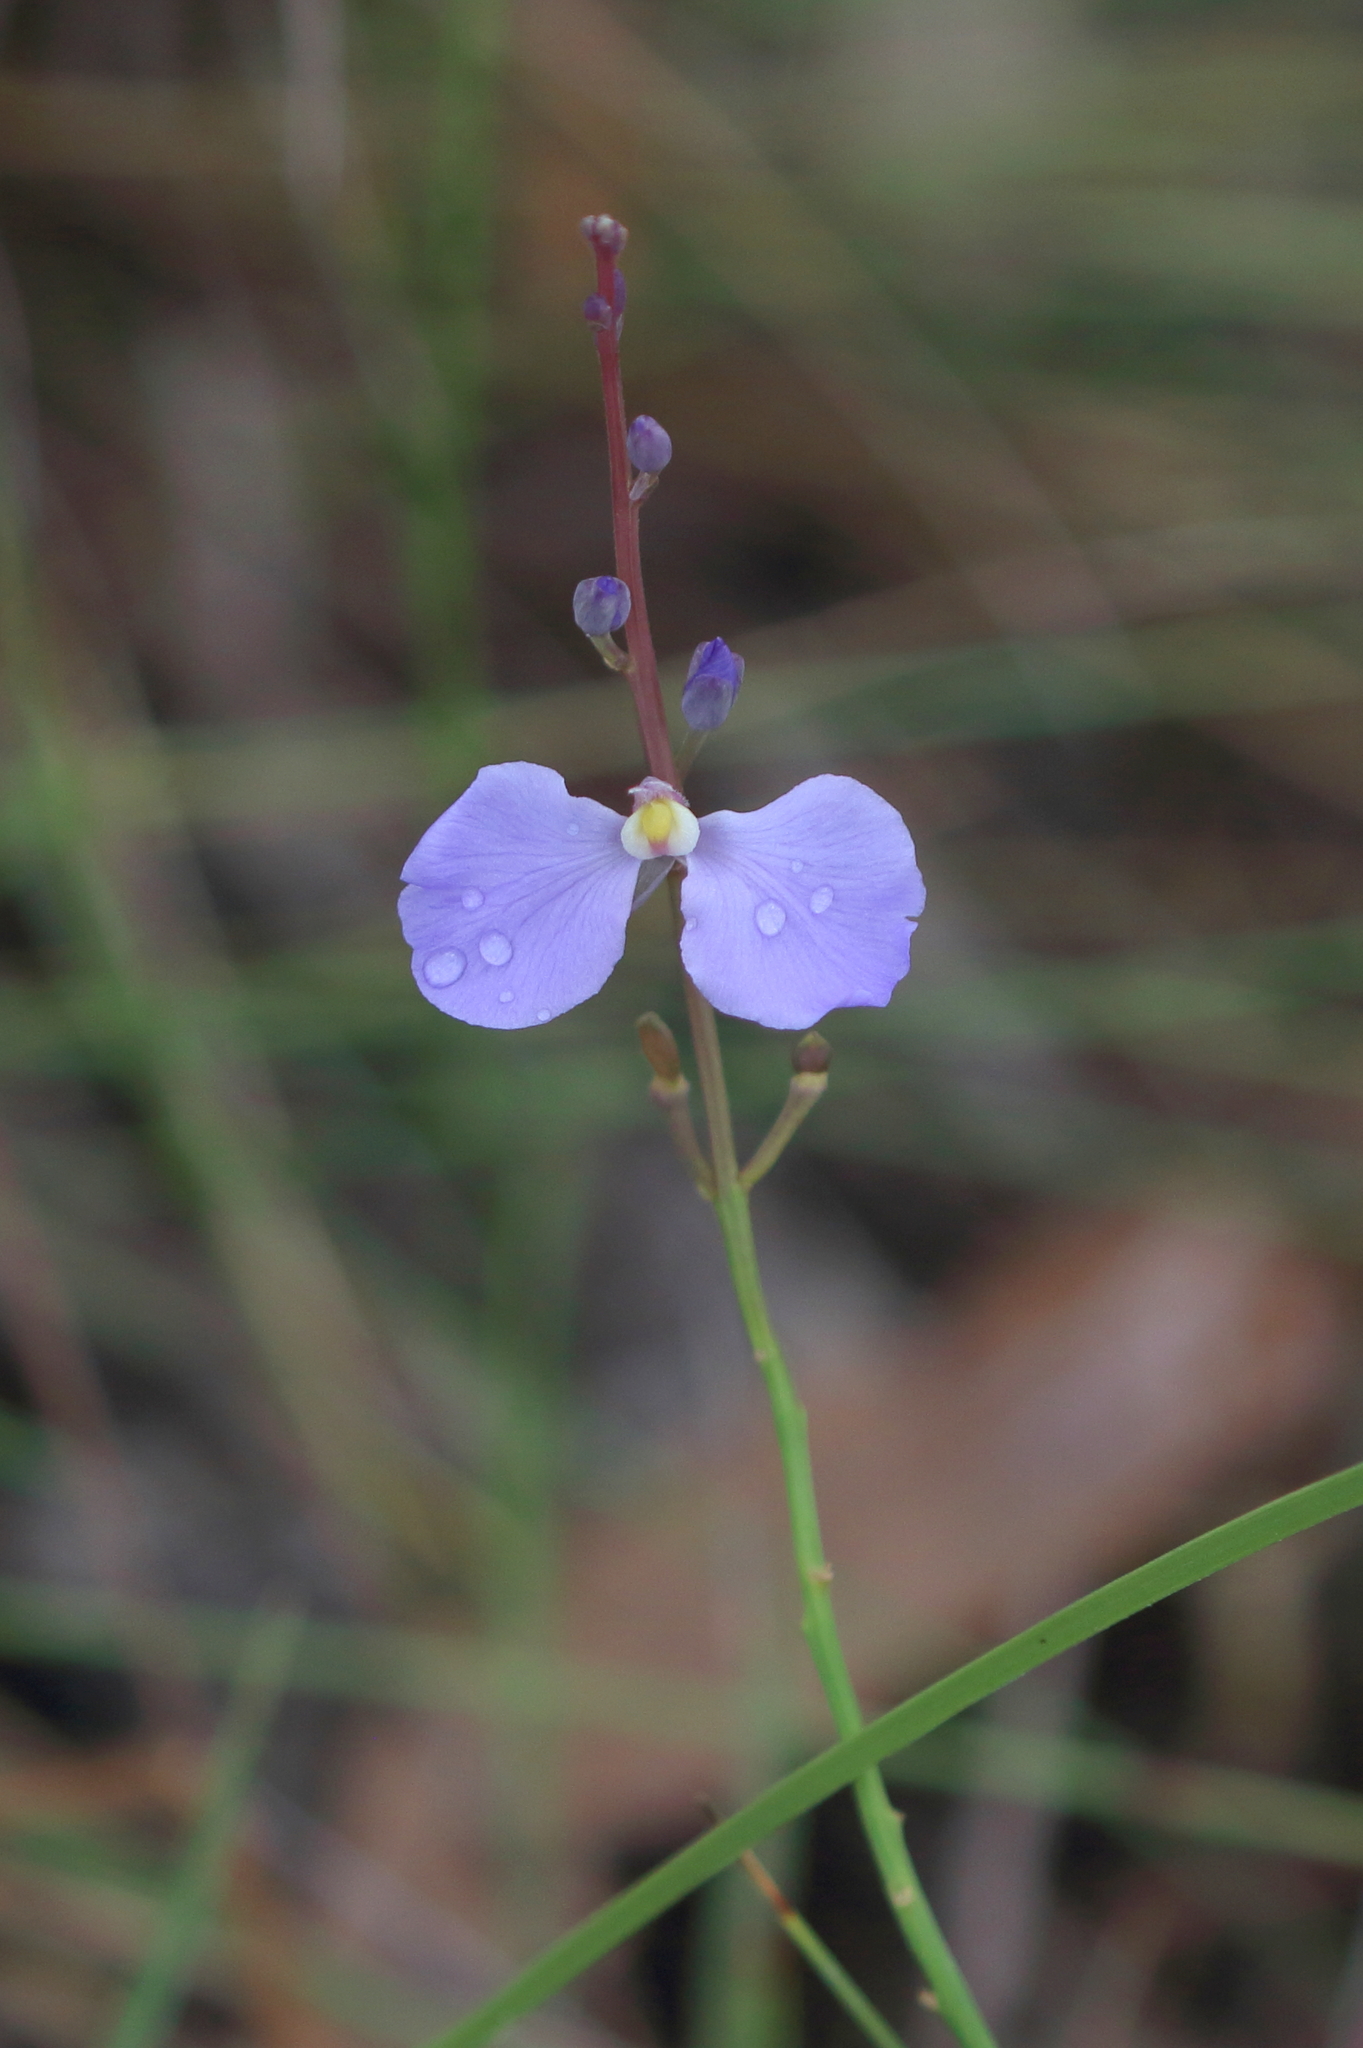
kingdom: Plantae
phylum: Tracheophyta
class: Magnoliopsida
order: Fabales
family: Polygalaceae
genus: Comesperma
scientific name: Comesperma sphaerocarpum
